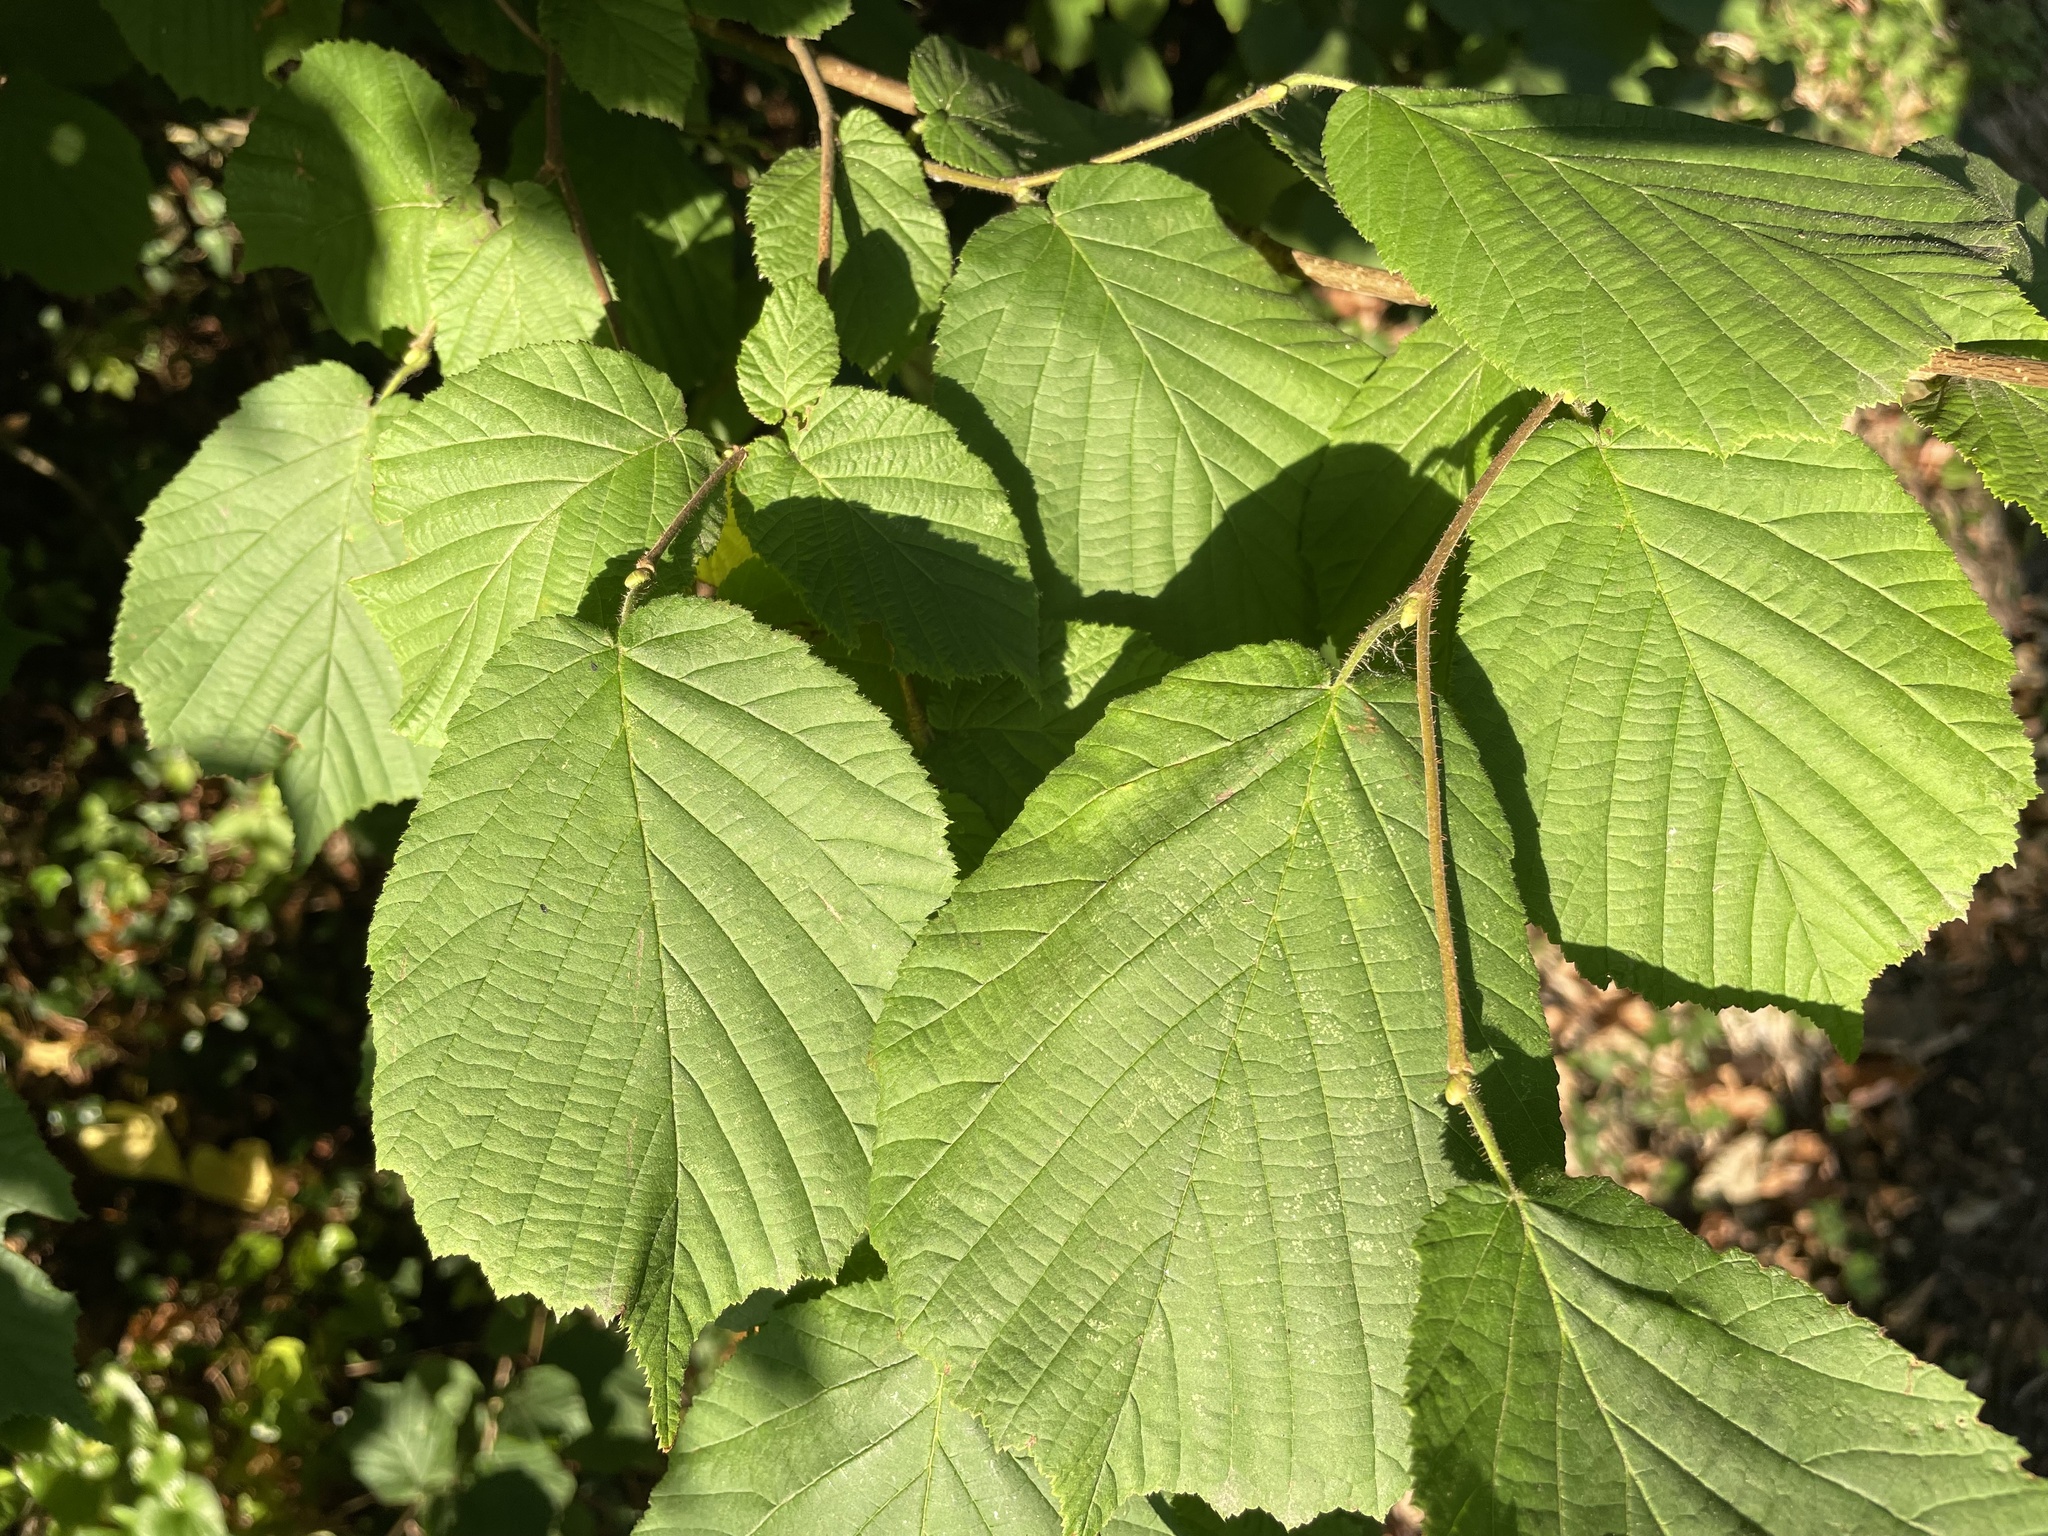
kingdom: Plantae
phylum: Tracheophyta
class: Magnoliopsida
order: Fagales
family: Betulaceae
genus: Corylus
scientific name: Corylus avellana
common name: European hazel
